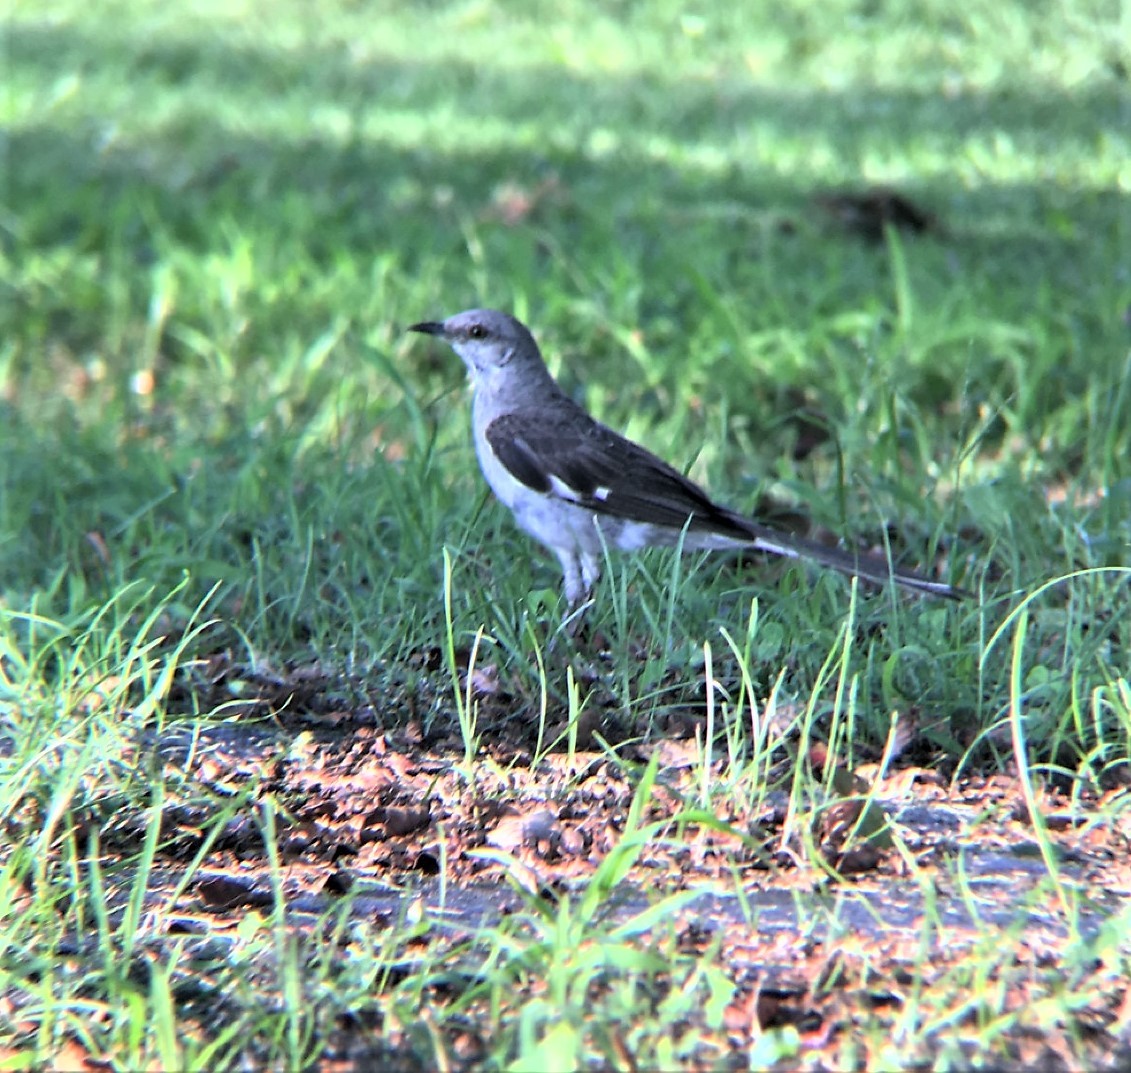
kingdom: Animalia
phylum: Chordata
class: Aves
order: Passeriformes
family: Mimidae
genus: Mimus
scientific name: Mimus polyglottos
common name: Northern mockingbird
